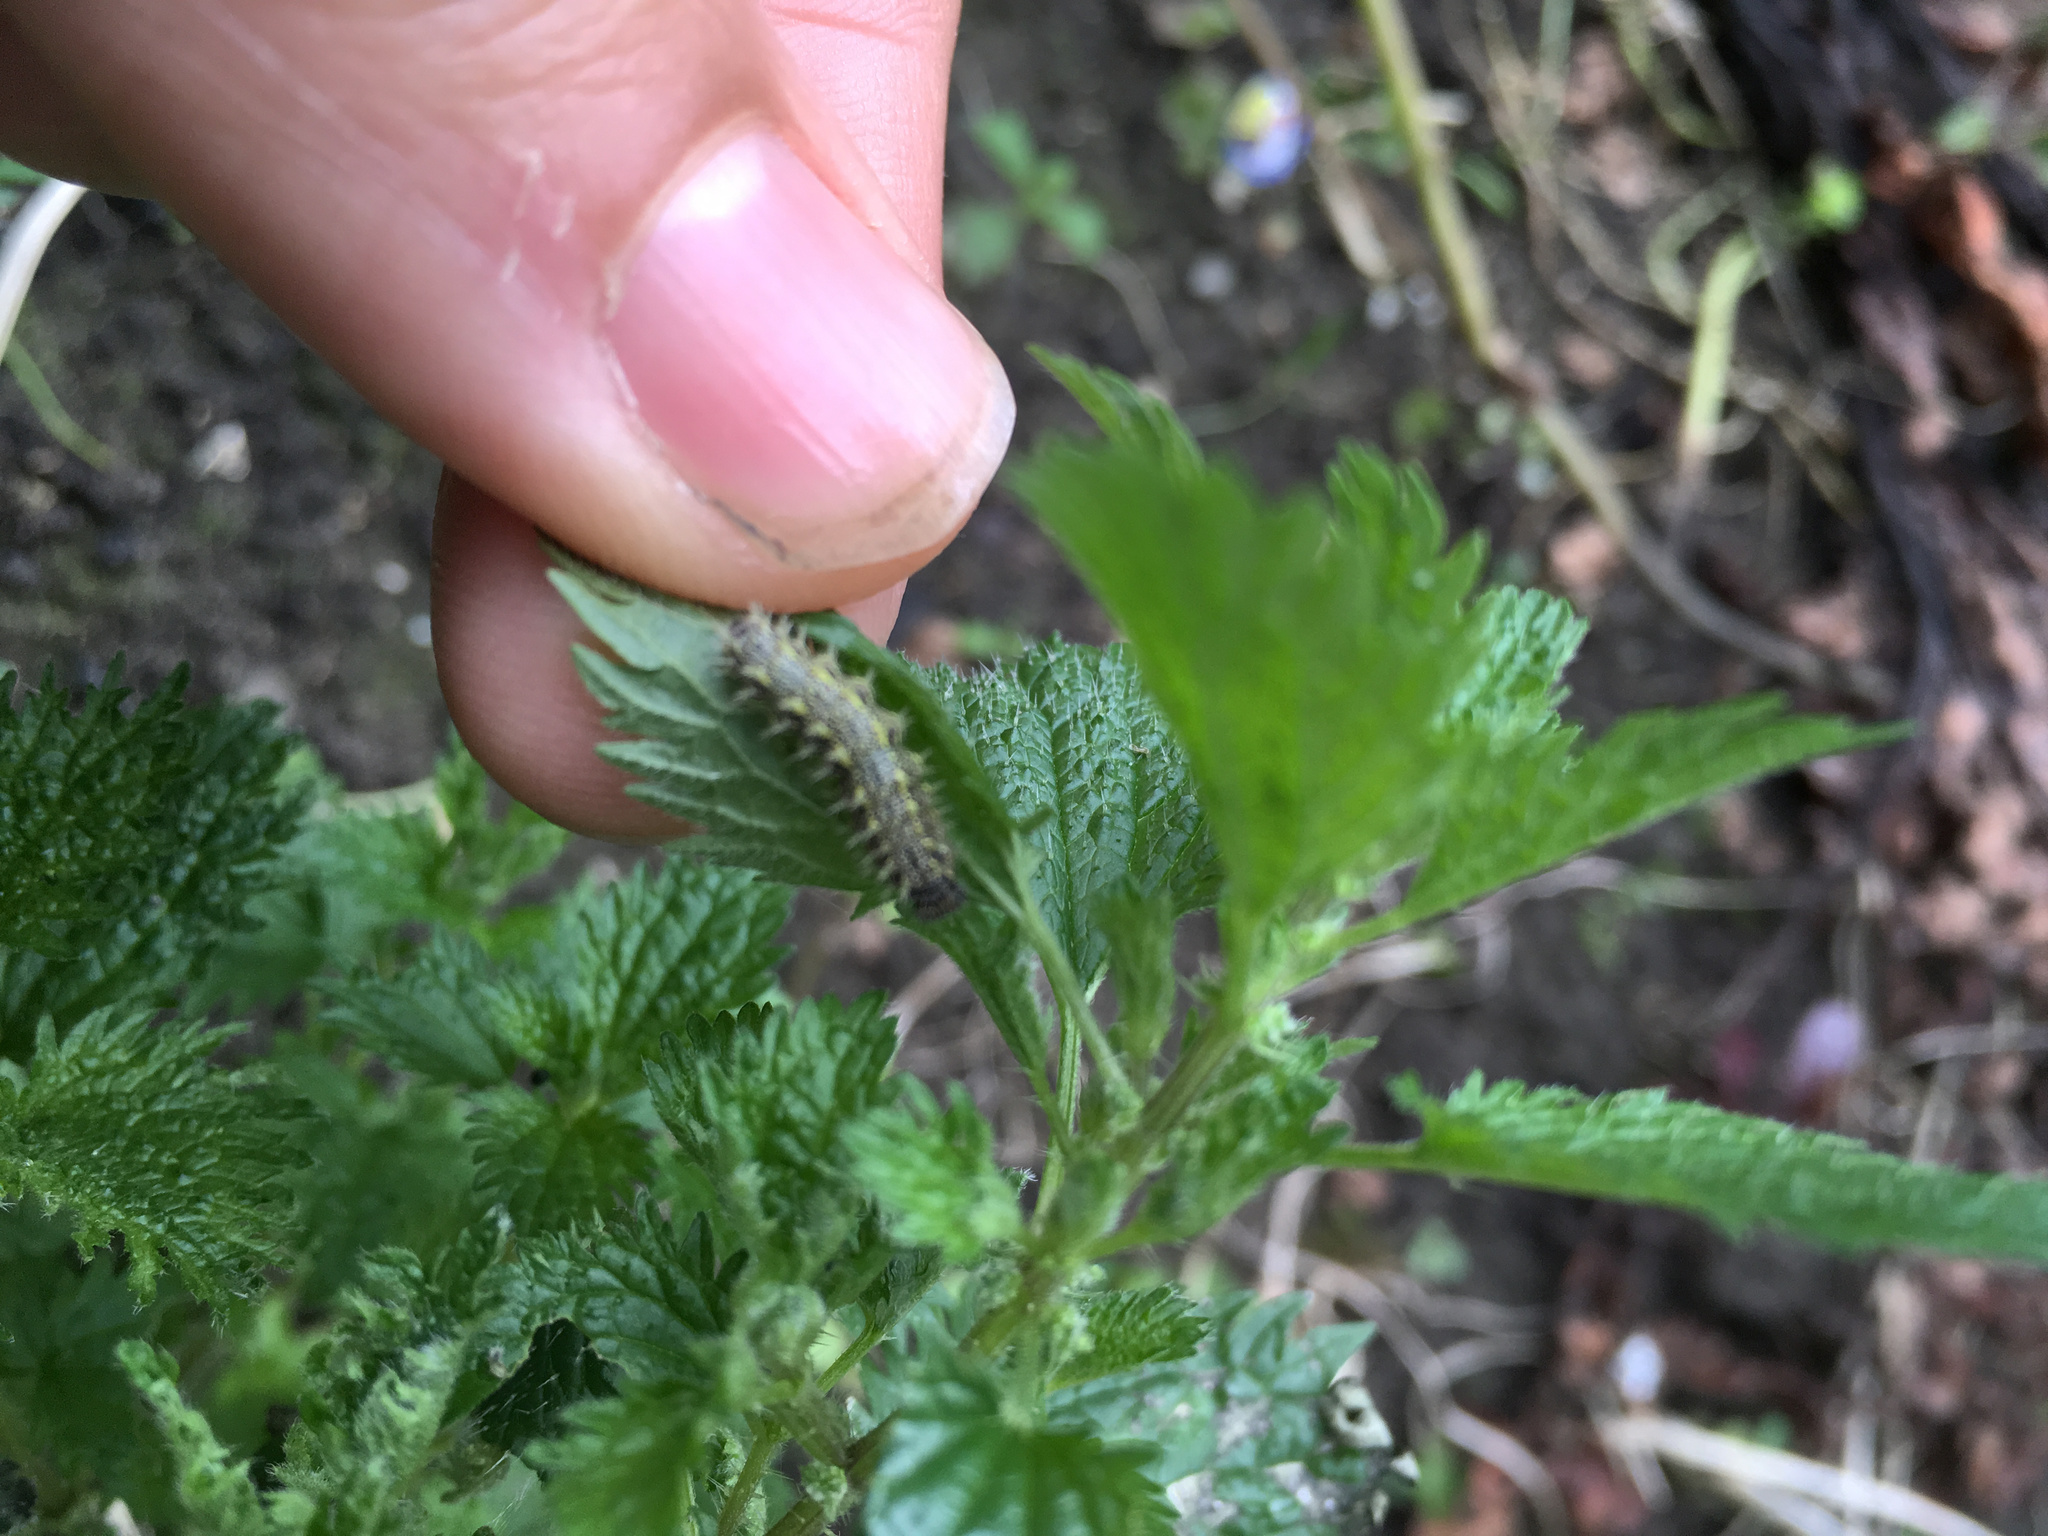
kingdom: Animalia
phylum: Arthropoda
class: Insecta
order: Lepidoptera
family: Nymphalidae
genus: Vanessa
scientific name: Vanessa itea
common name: Yellow admiral
